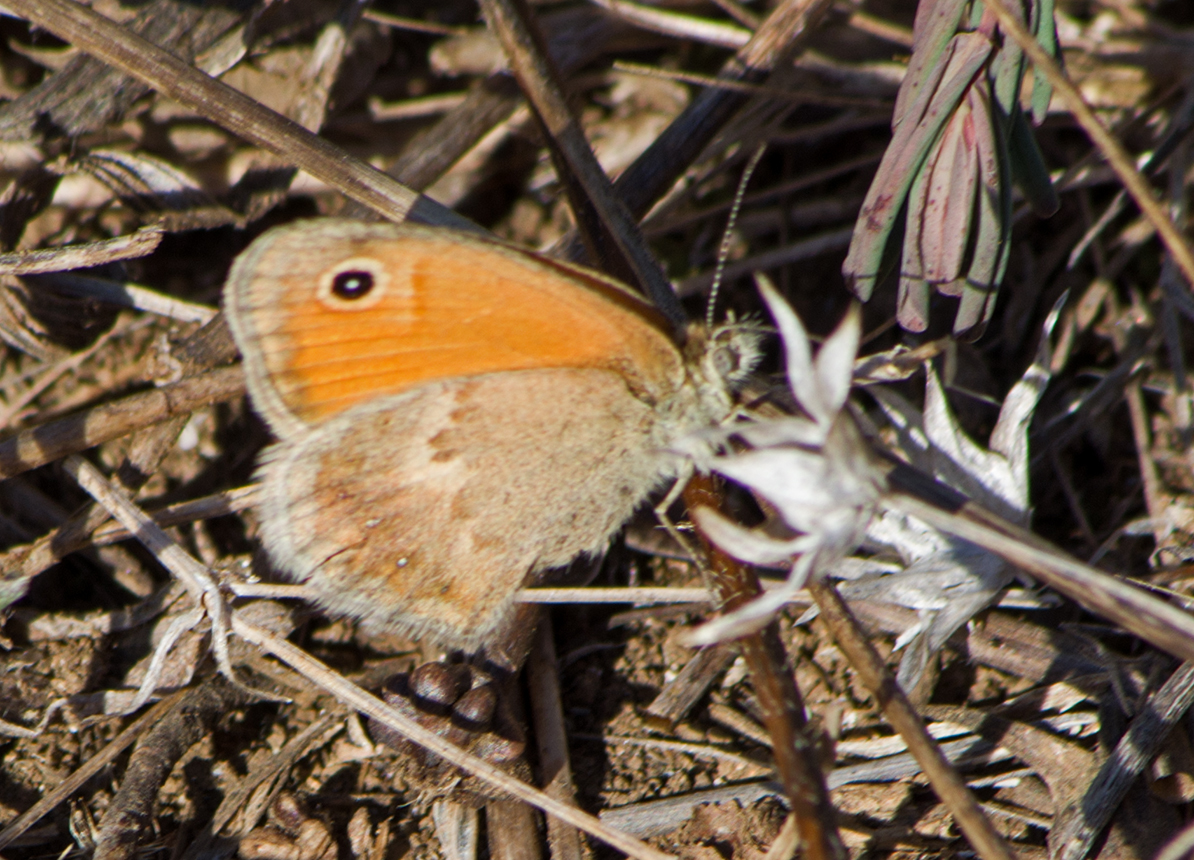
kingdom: Animalia
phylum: Arthropoda
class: Insecta
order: Lepidoptera
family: Nymphalidae
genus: Coenonympha
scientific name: Coenonympha pamphilus
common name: Small heath
